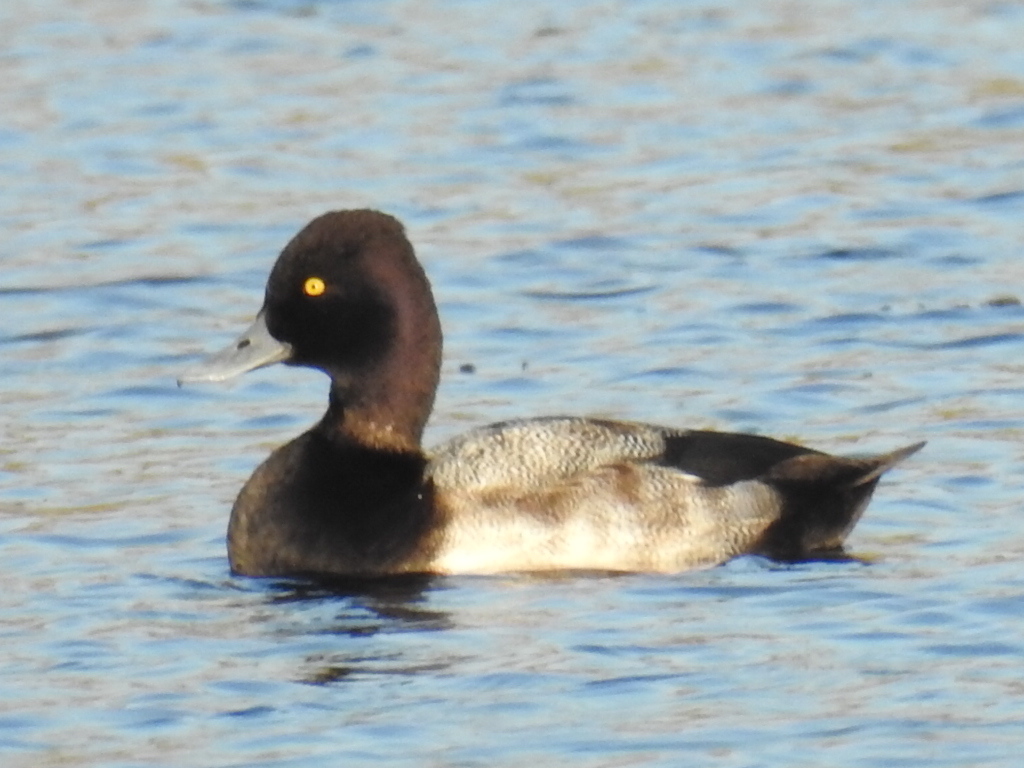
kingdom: Animalia
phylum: Chordata
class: Aves
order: Anseriformes
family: Anatidae
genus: Aythya
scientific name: Aythya affinis
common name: Lesser scaup
